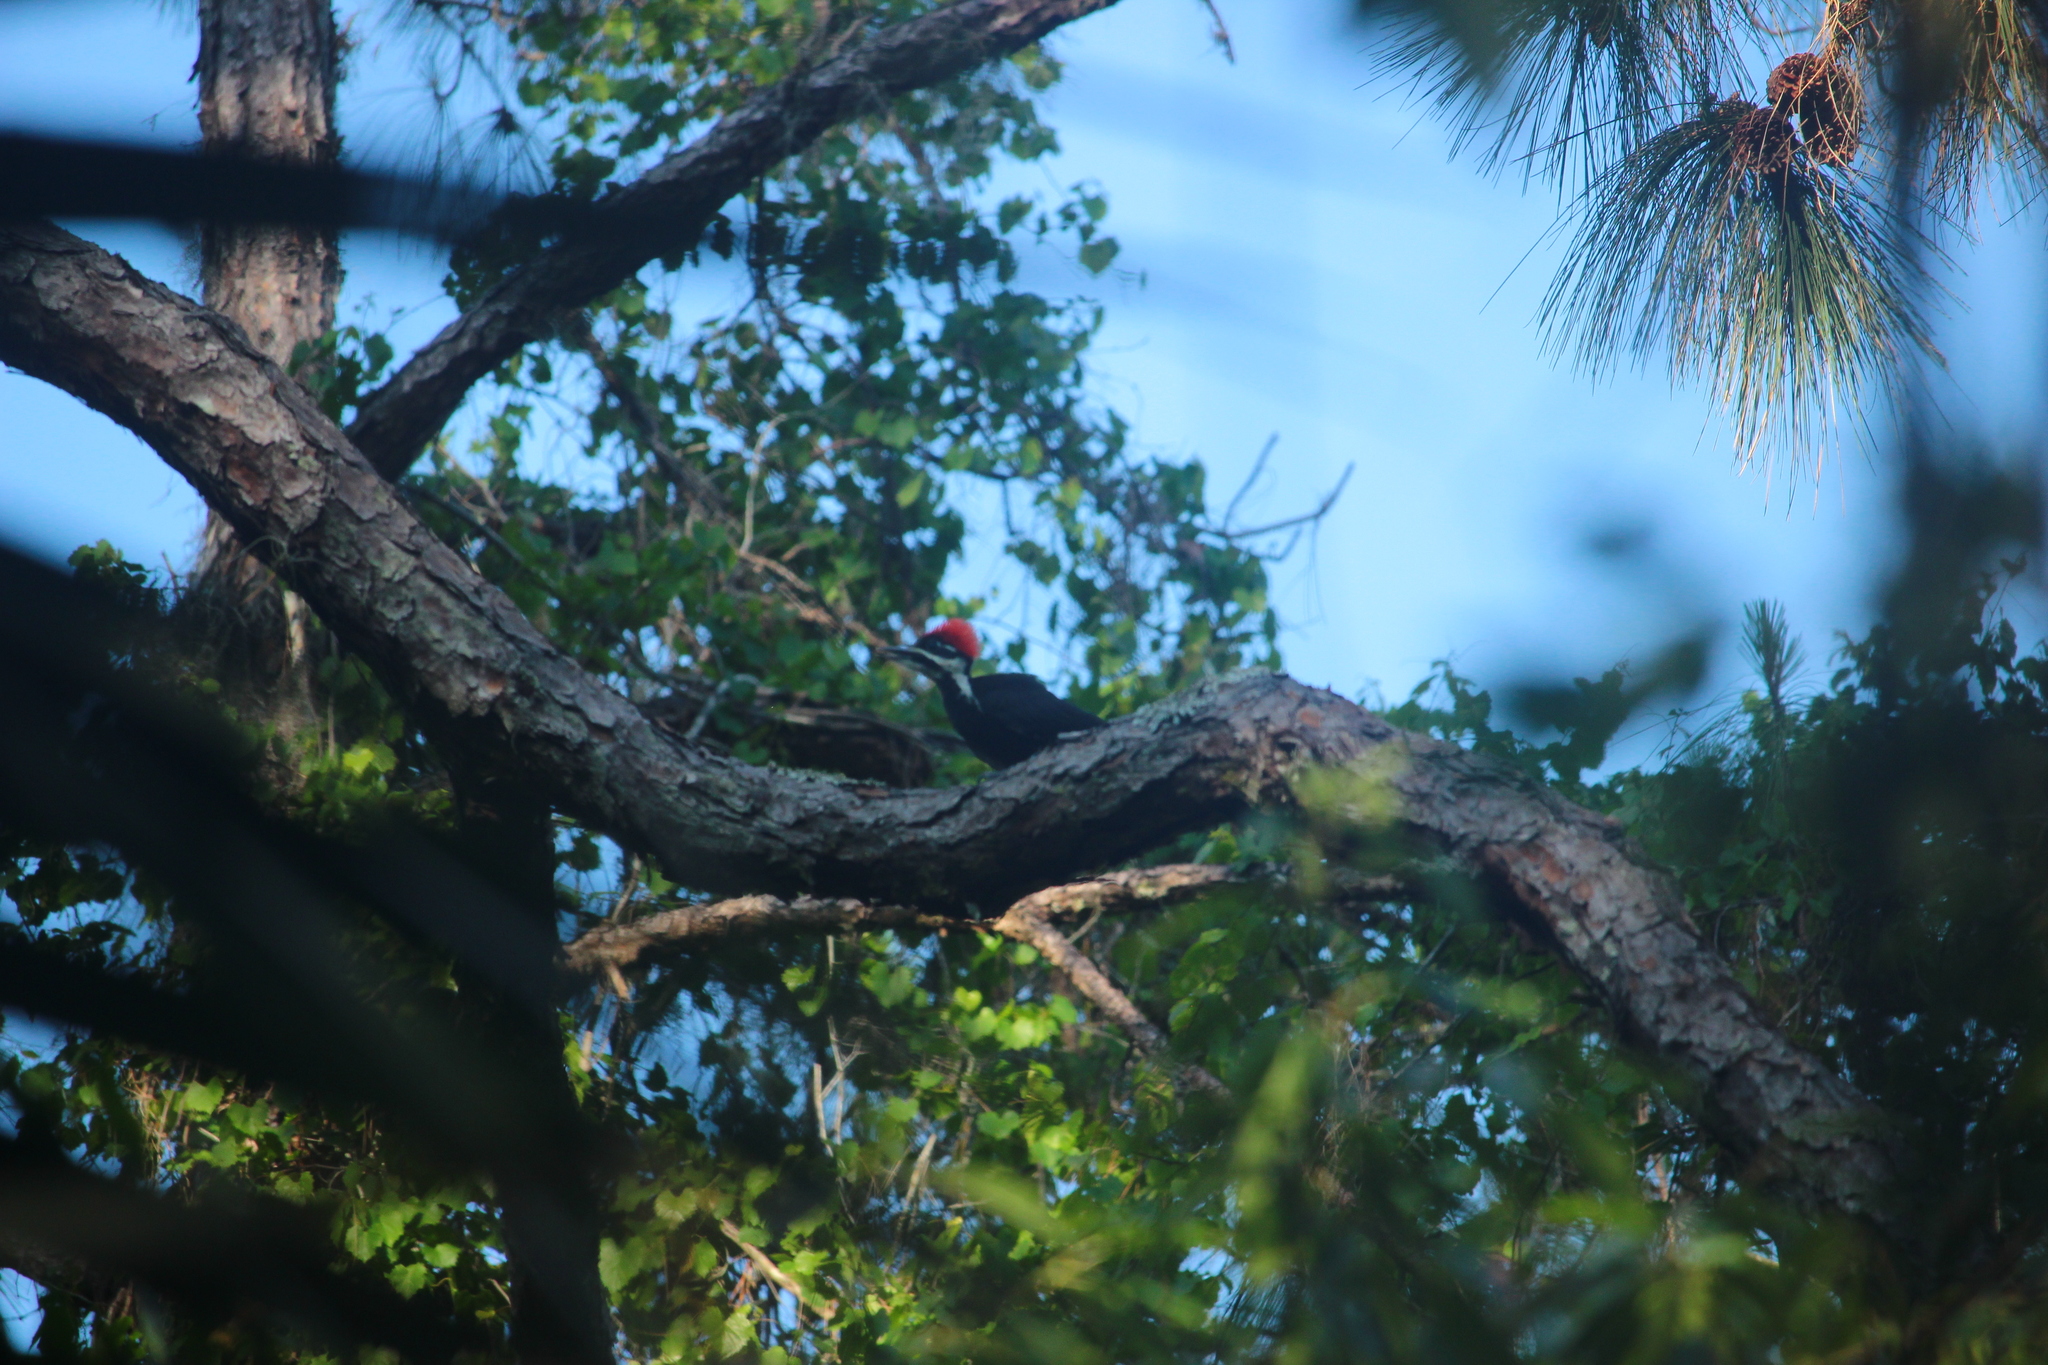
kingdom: Animalia
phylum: Chordata
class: Aves
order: Piciformes
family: Picidae
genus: Dryocopus
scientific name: Dryocopus pileatus
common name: Pileated woodpecker
